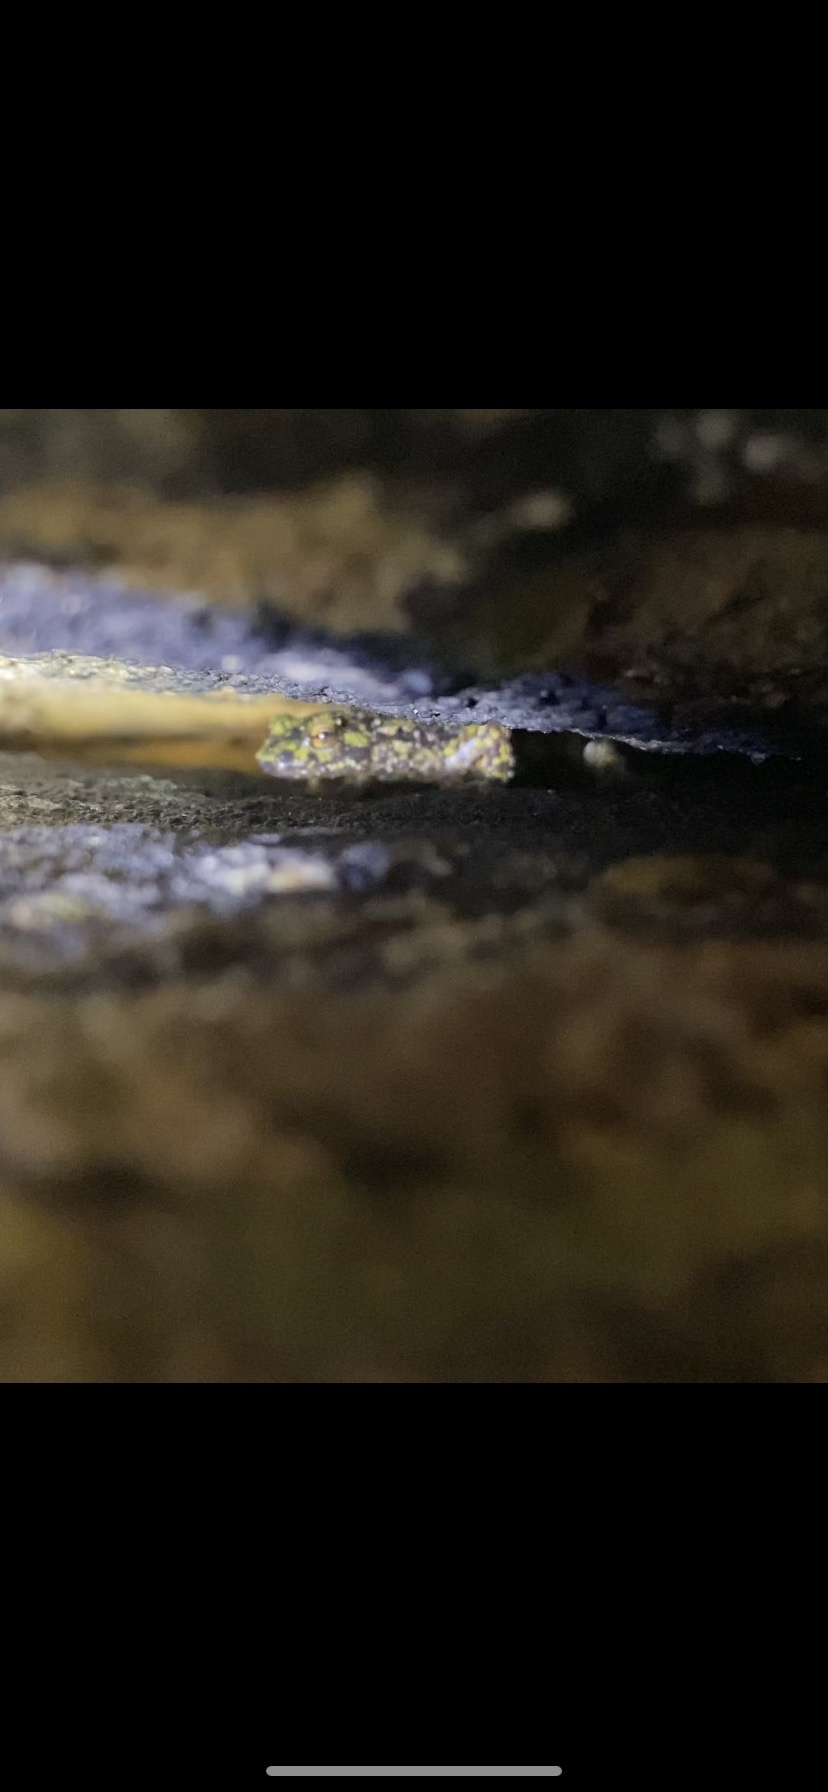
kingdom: Animalia
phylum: Chordata
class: Amphibia
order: Caudata
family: Plethodontidae
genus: Aneides
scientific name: Aneides aeneus
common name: Green salamander
